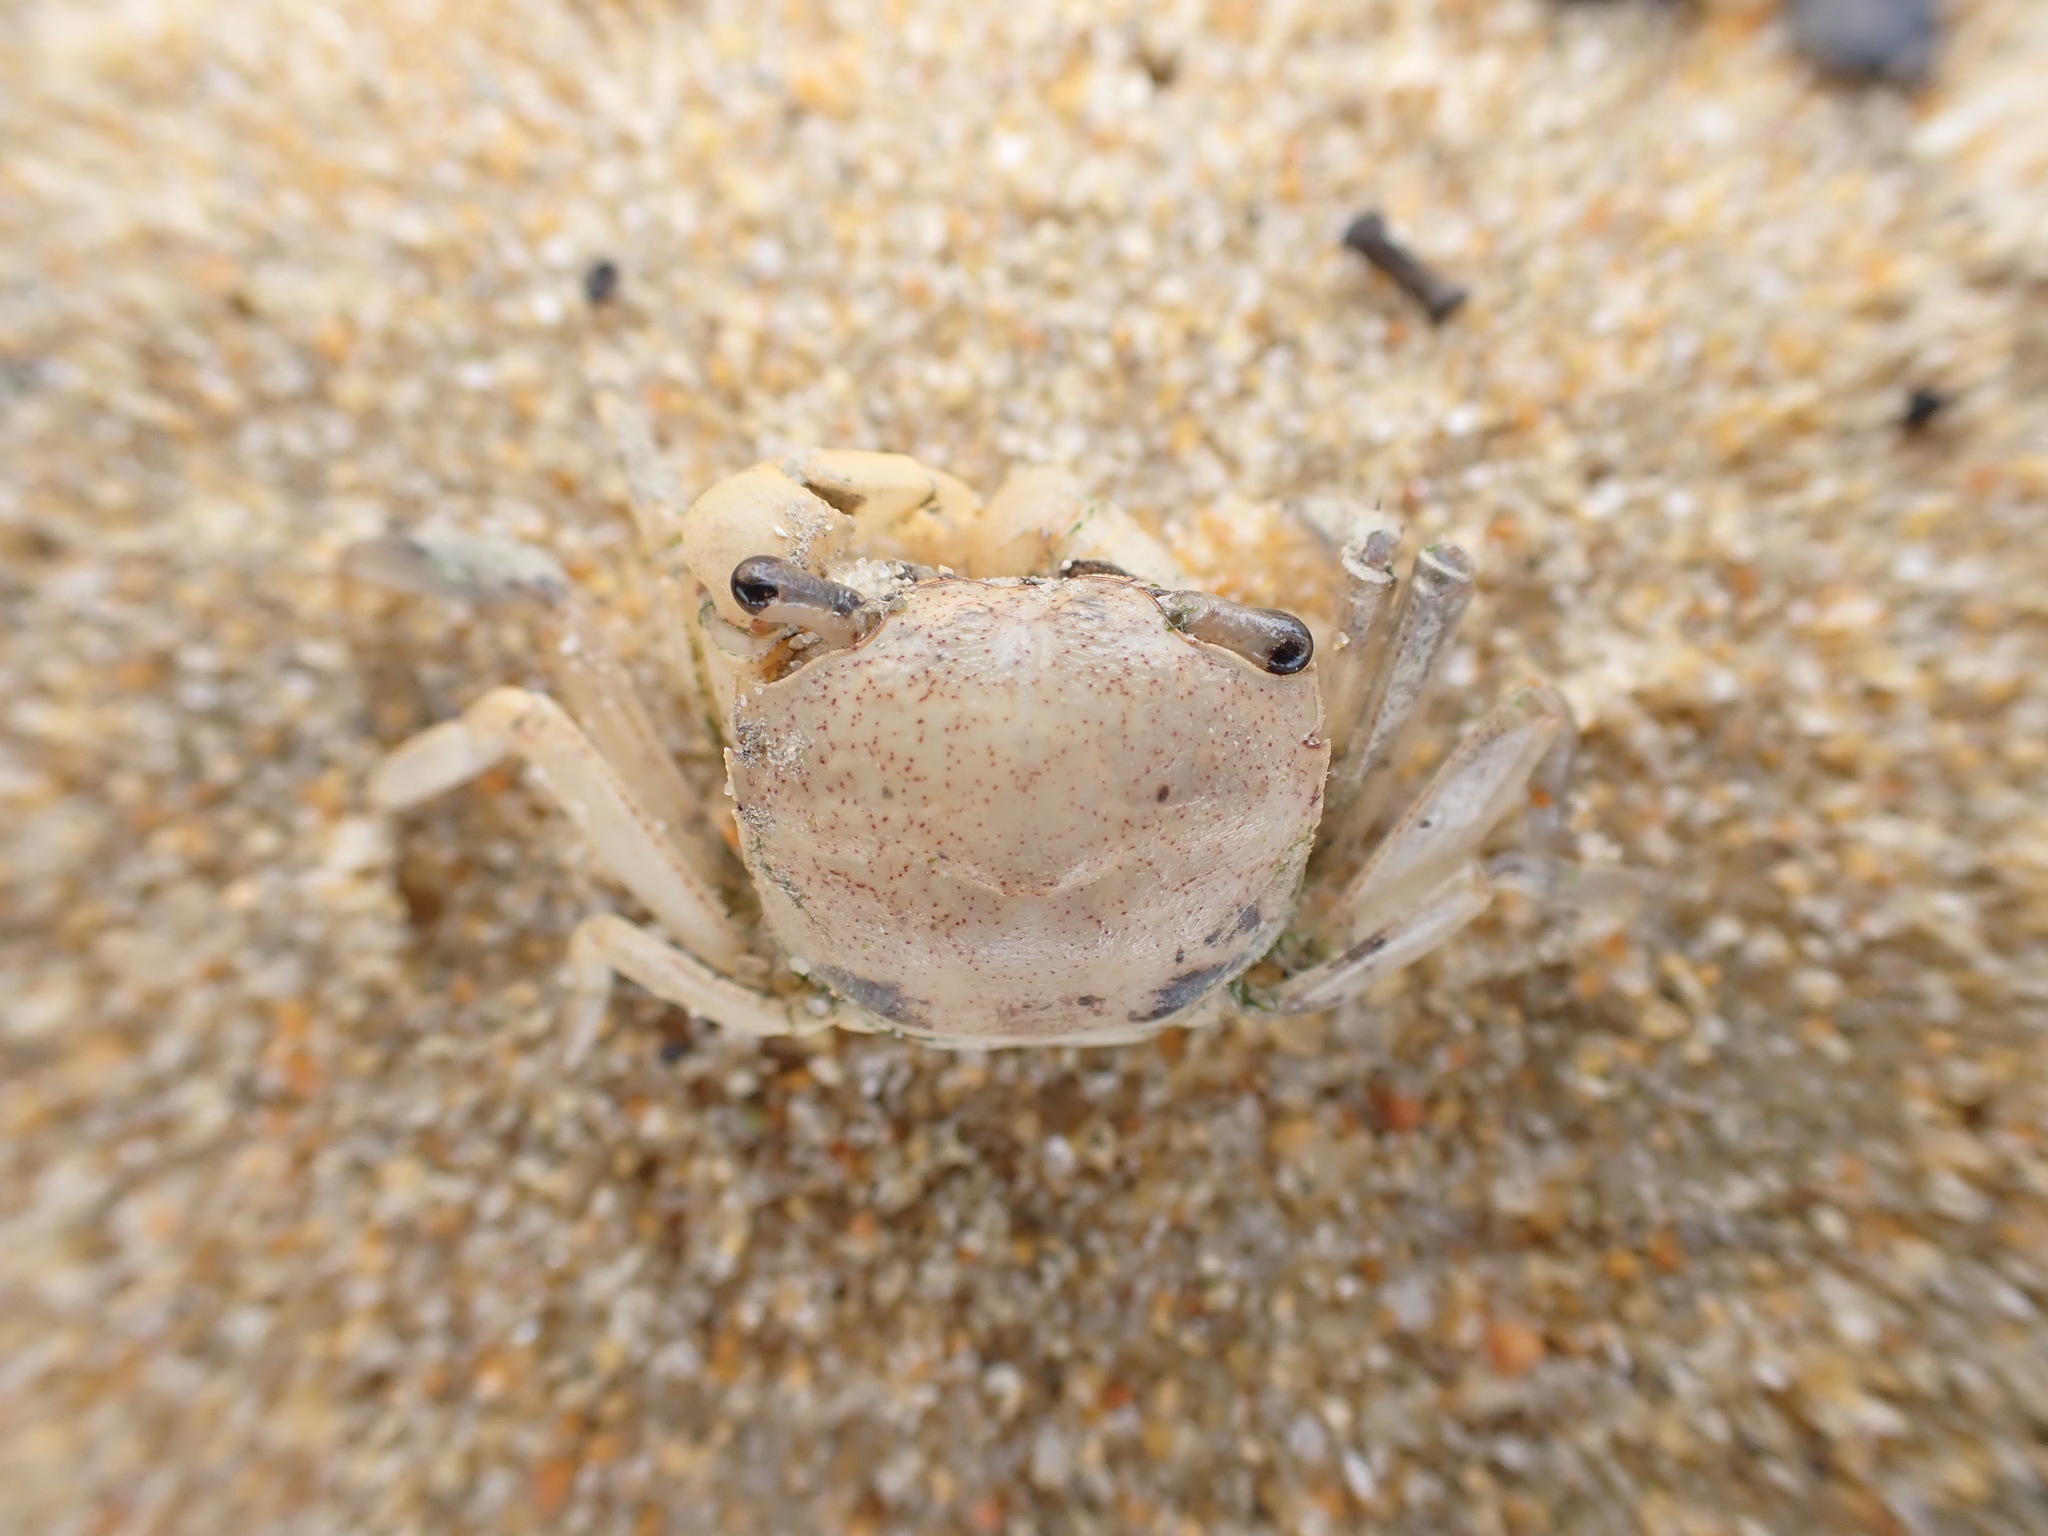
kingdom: Animalia
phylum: Arthropoda
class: Malacostraca
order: Decapoda
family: Varunidae
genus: Austrohelice
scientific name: Austrohelice crassa
